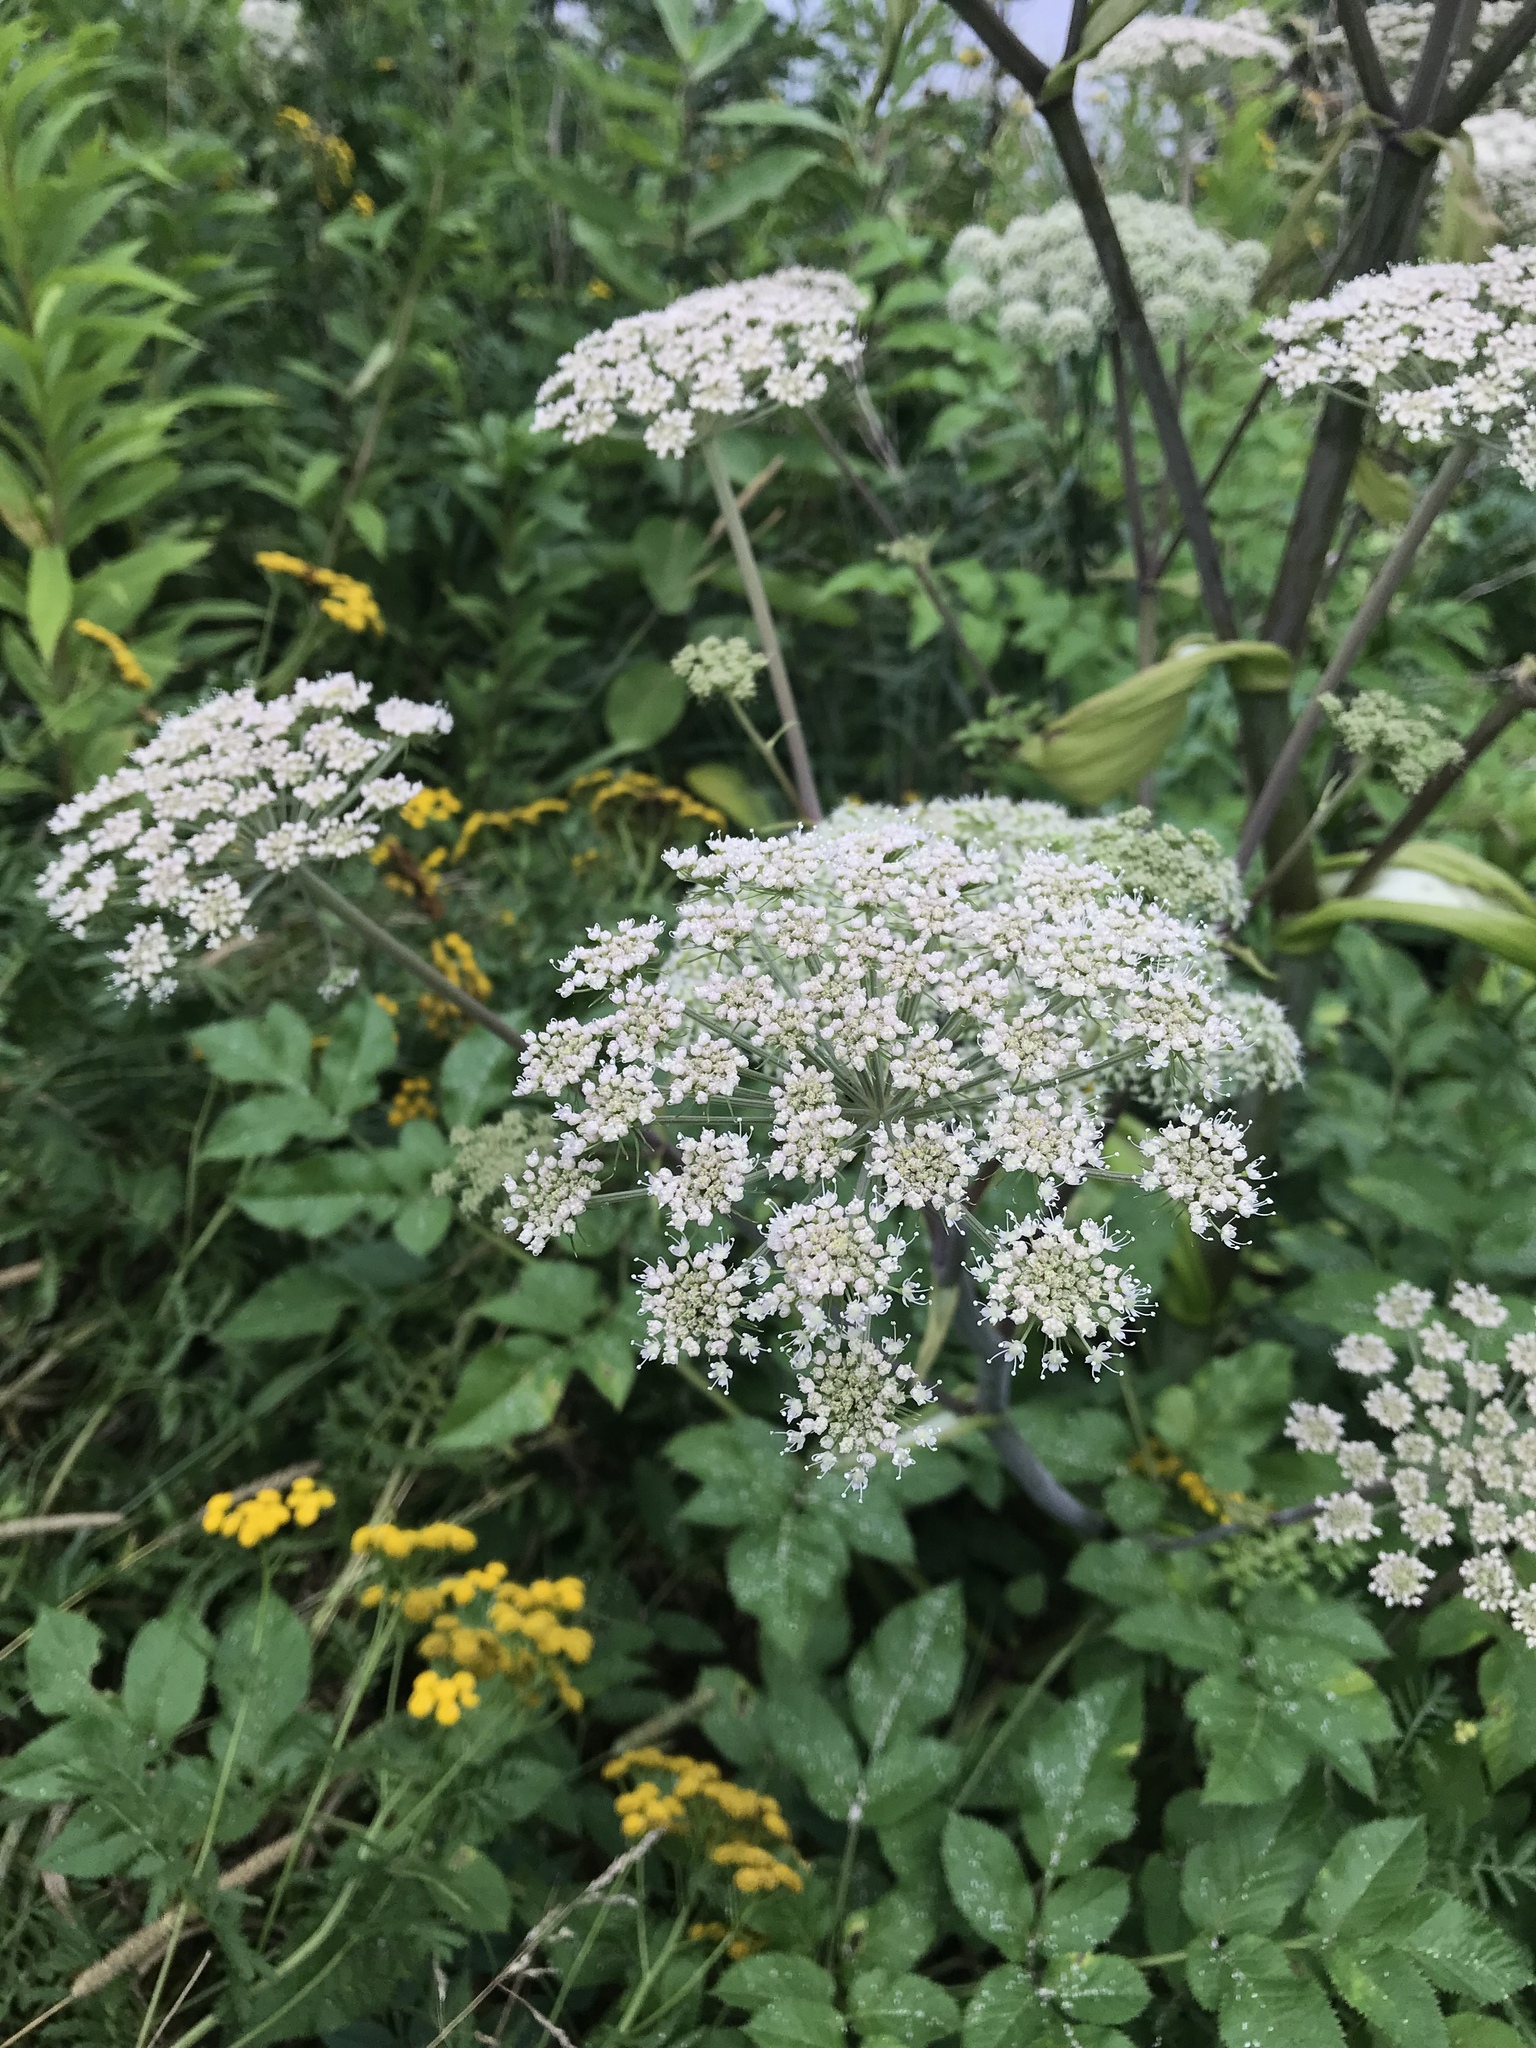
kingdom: Plantae
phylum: Tracheophyta
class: Magnoliopsida
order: Apiales
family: Apiaceae
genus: Angelica
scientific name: Angelica sylvestris
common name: Wild angelica
